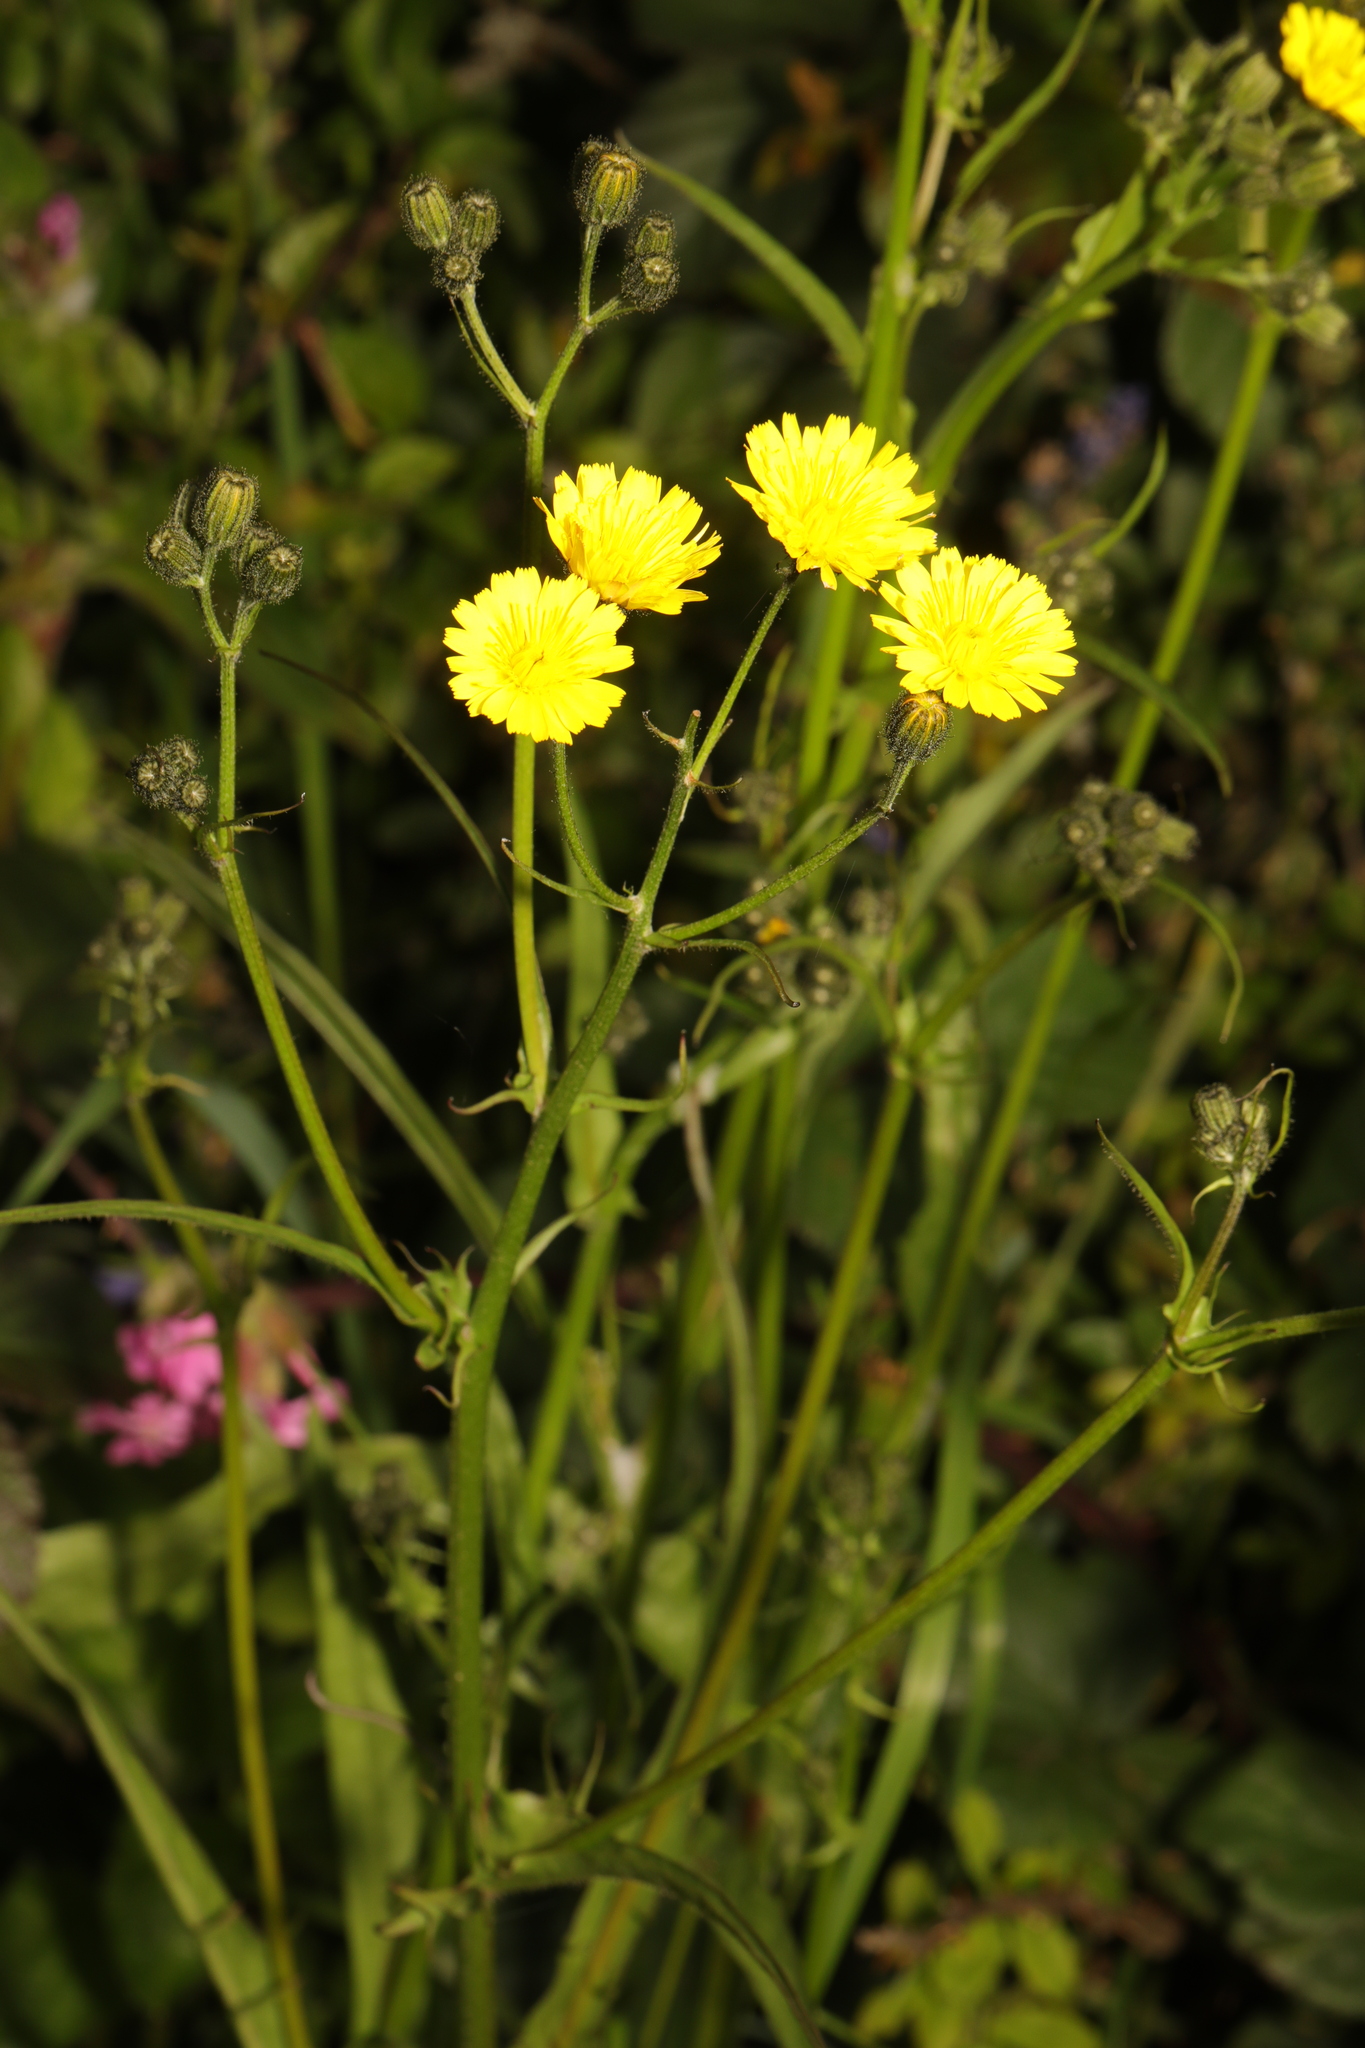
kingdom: Plantae
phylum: Tracheophyta
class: Magnoliopsida
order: Asterales
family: Asteraceae
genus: Crepis
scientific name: Crepis capillaris
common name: Smooth hawksbeard
